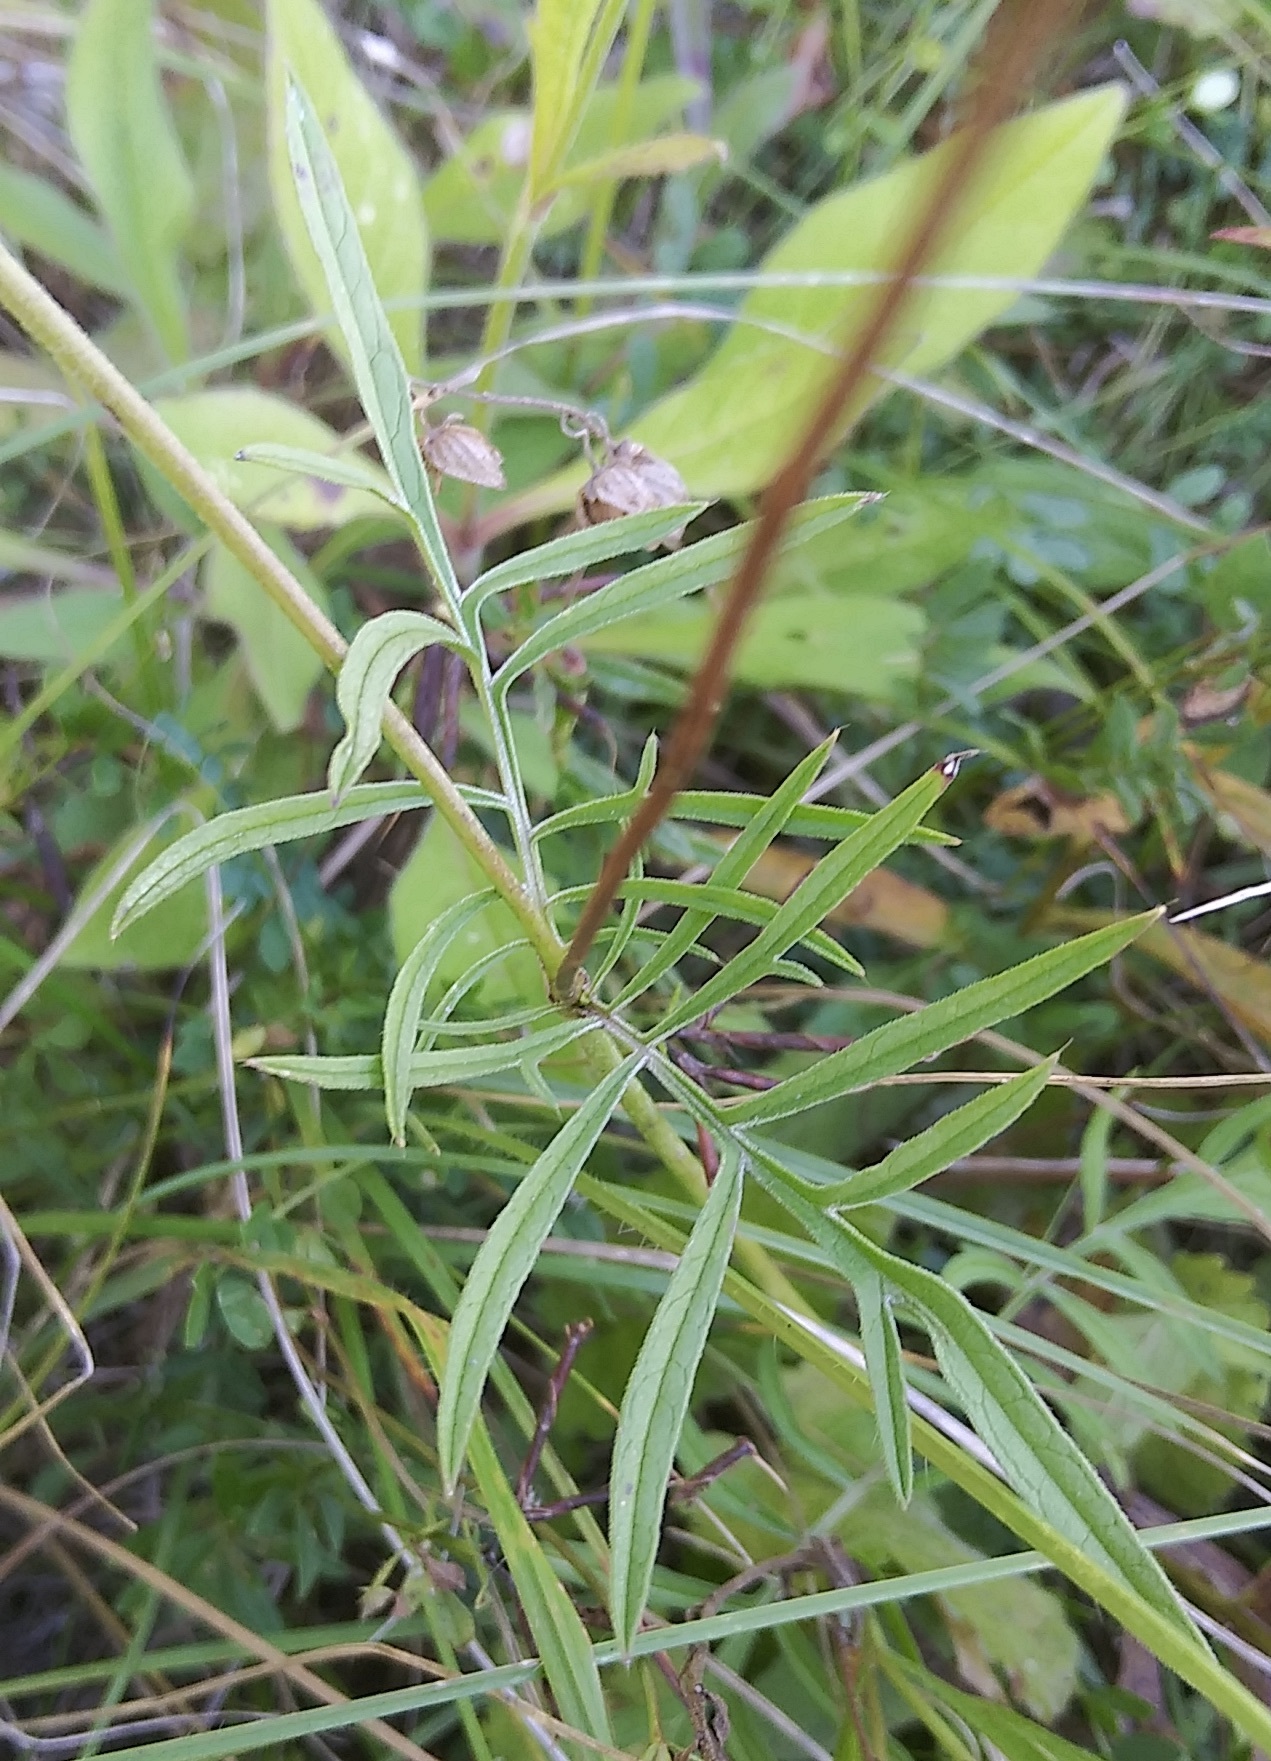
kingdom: Plantae
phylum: Tracheophyta
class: Magnoliopsida
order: Dipsacales
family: Caprifoliaceae
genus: Knautia
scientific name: Knautia arvensis
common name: Field scabiosa
